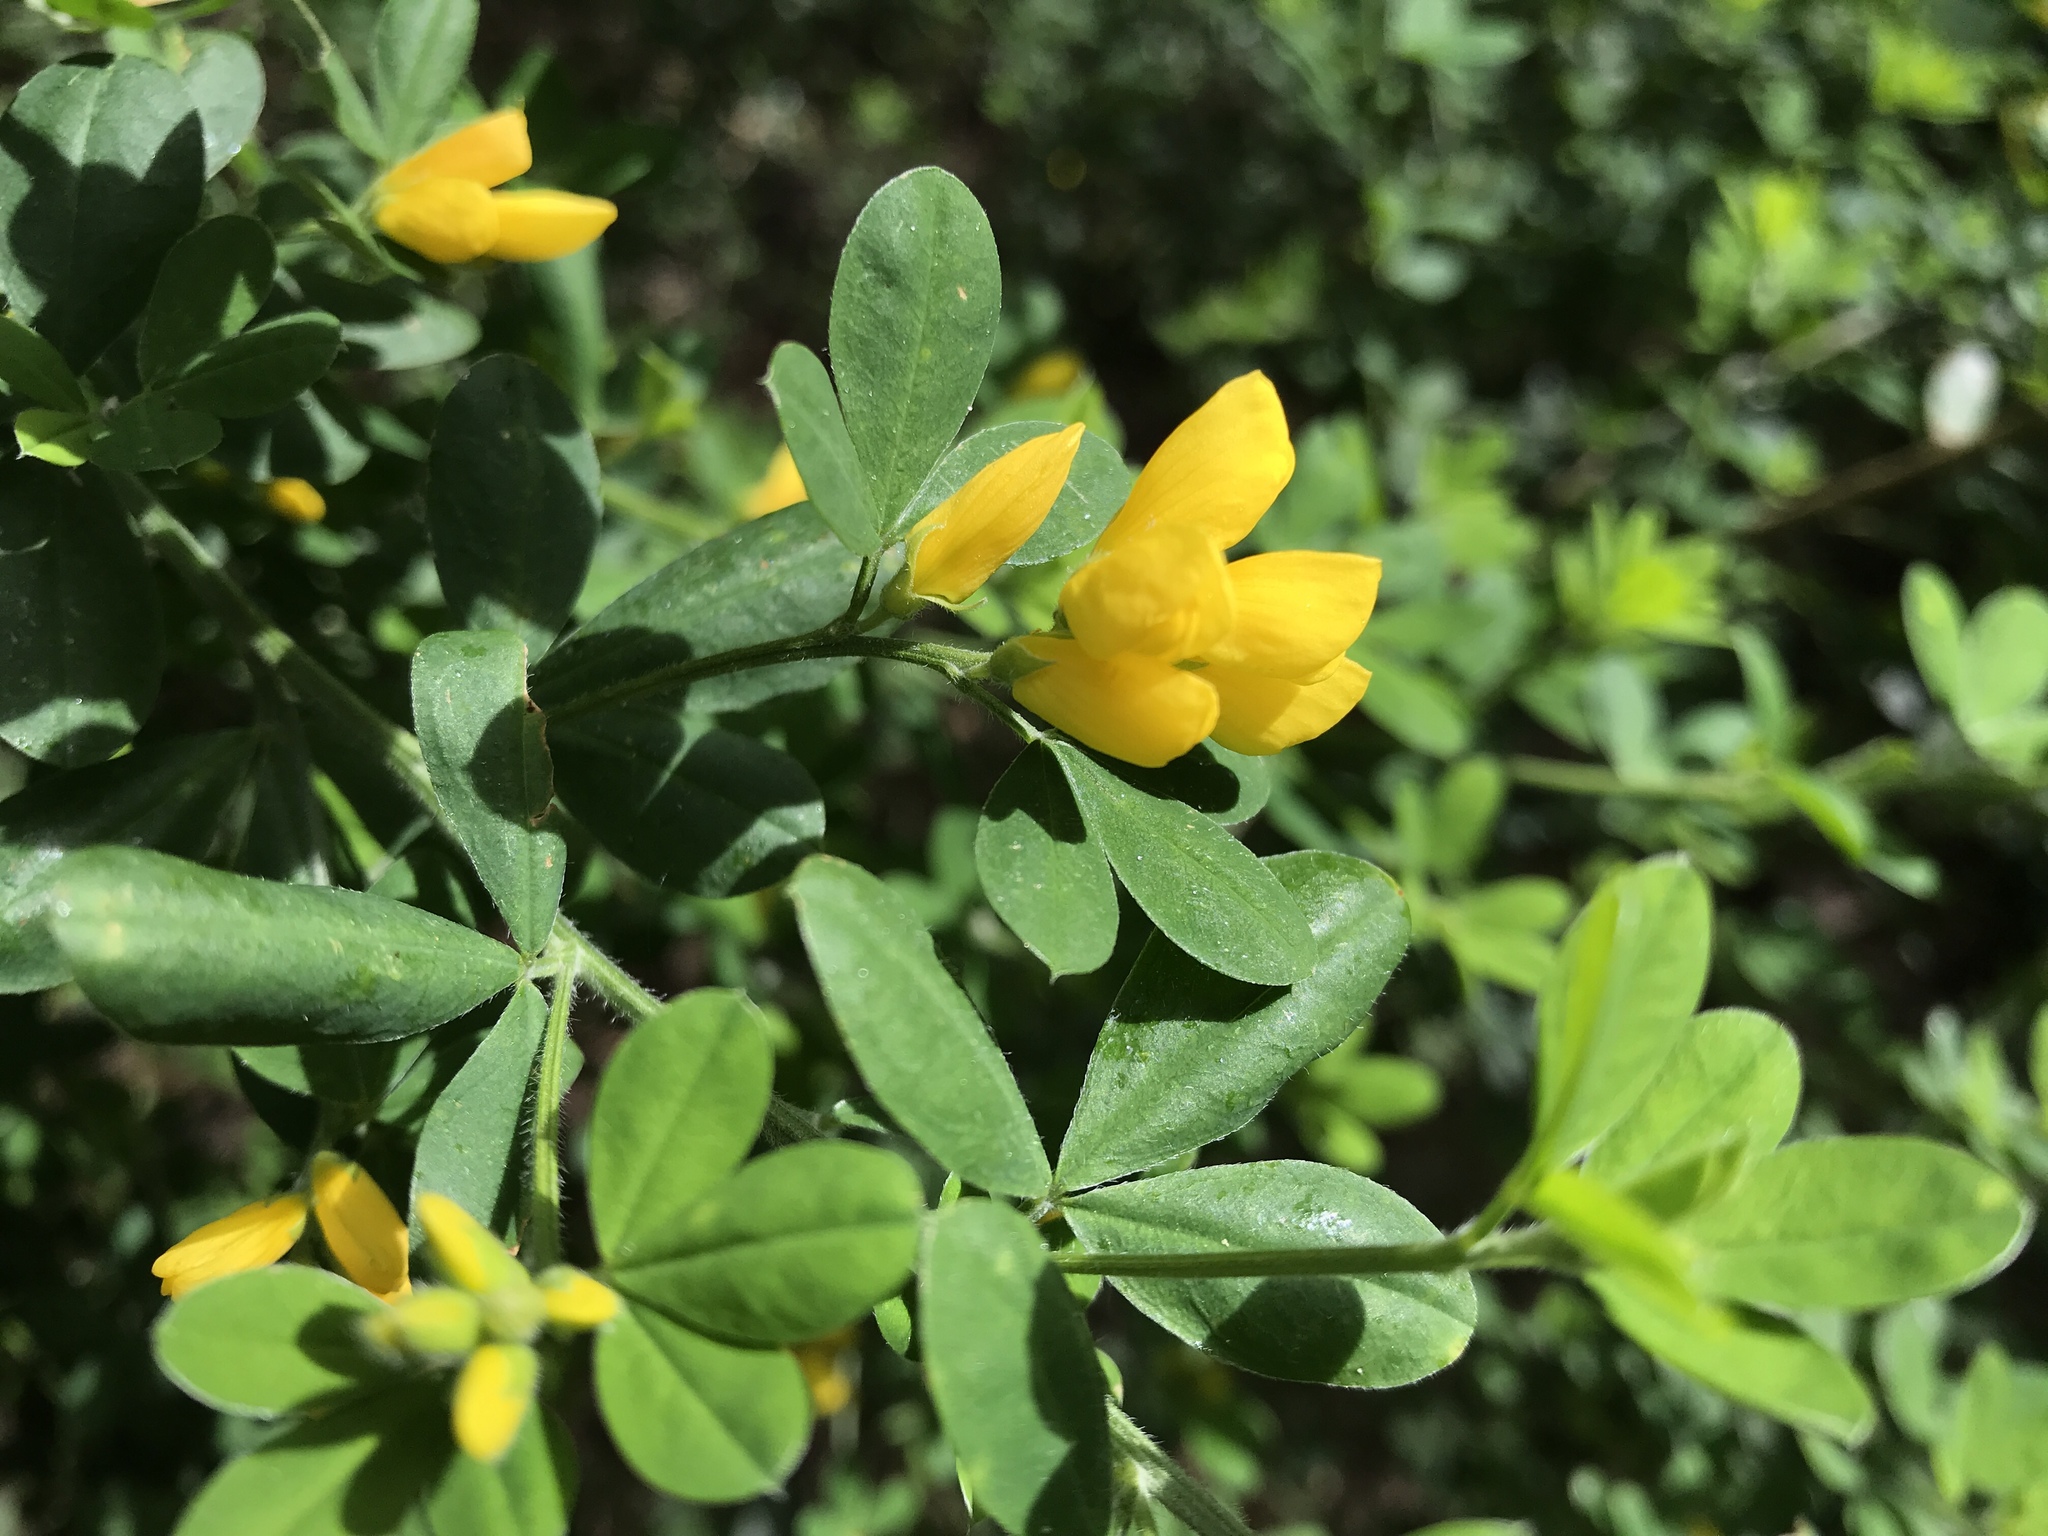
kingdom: Plantae
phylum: Tracheophyta
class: Magnoliopsida
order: Fabales
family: Fabaceae
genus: Genista
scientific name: Genista monspessulana
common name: Montpellier broom
